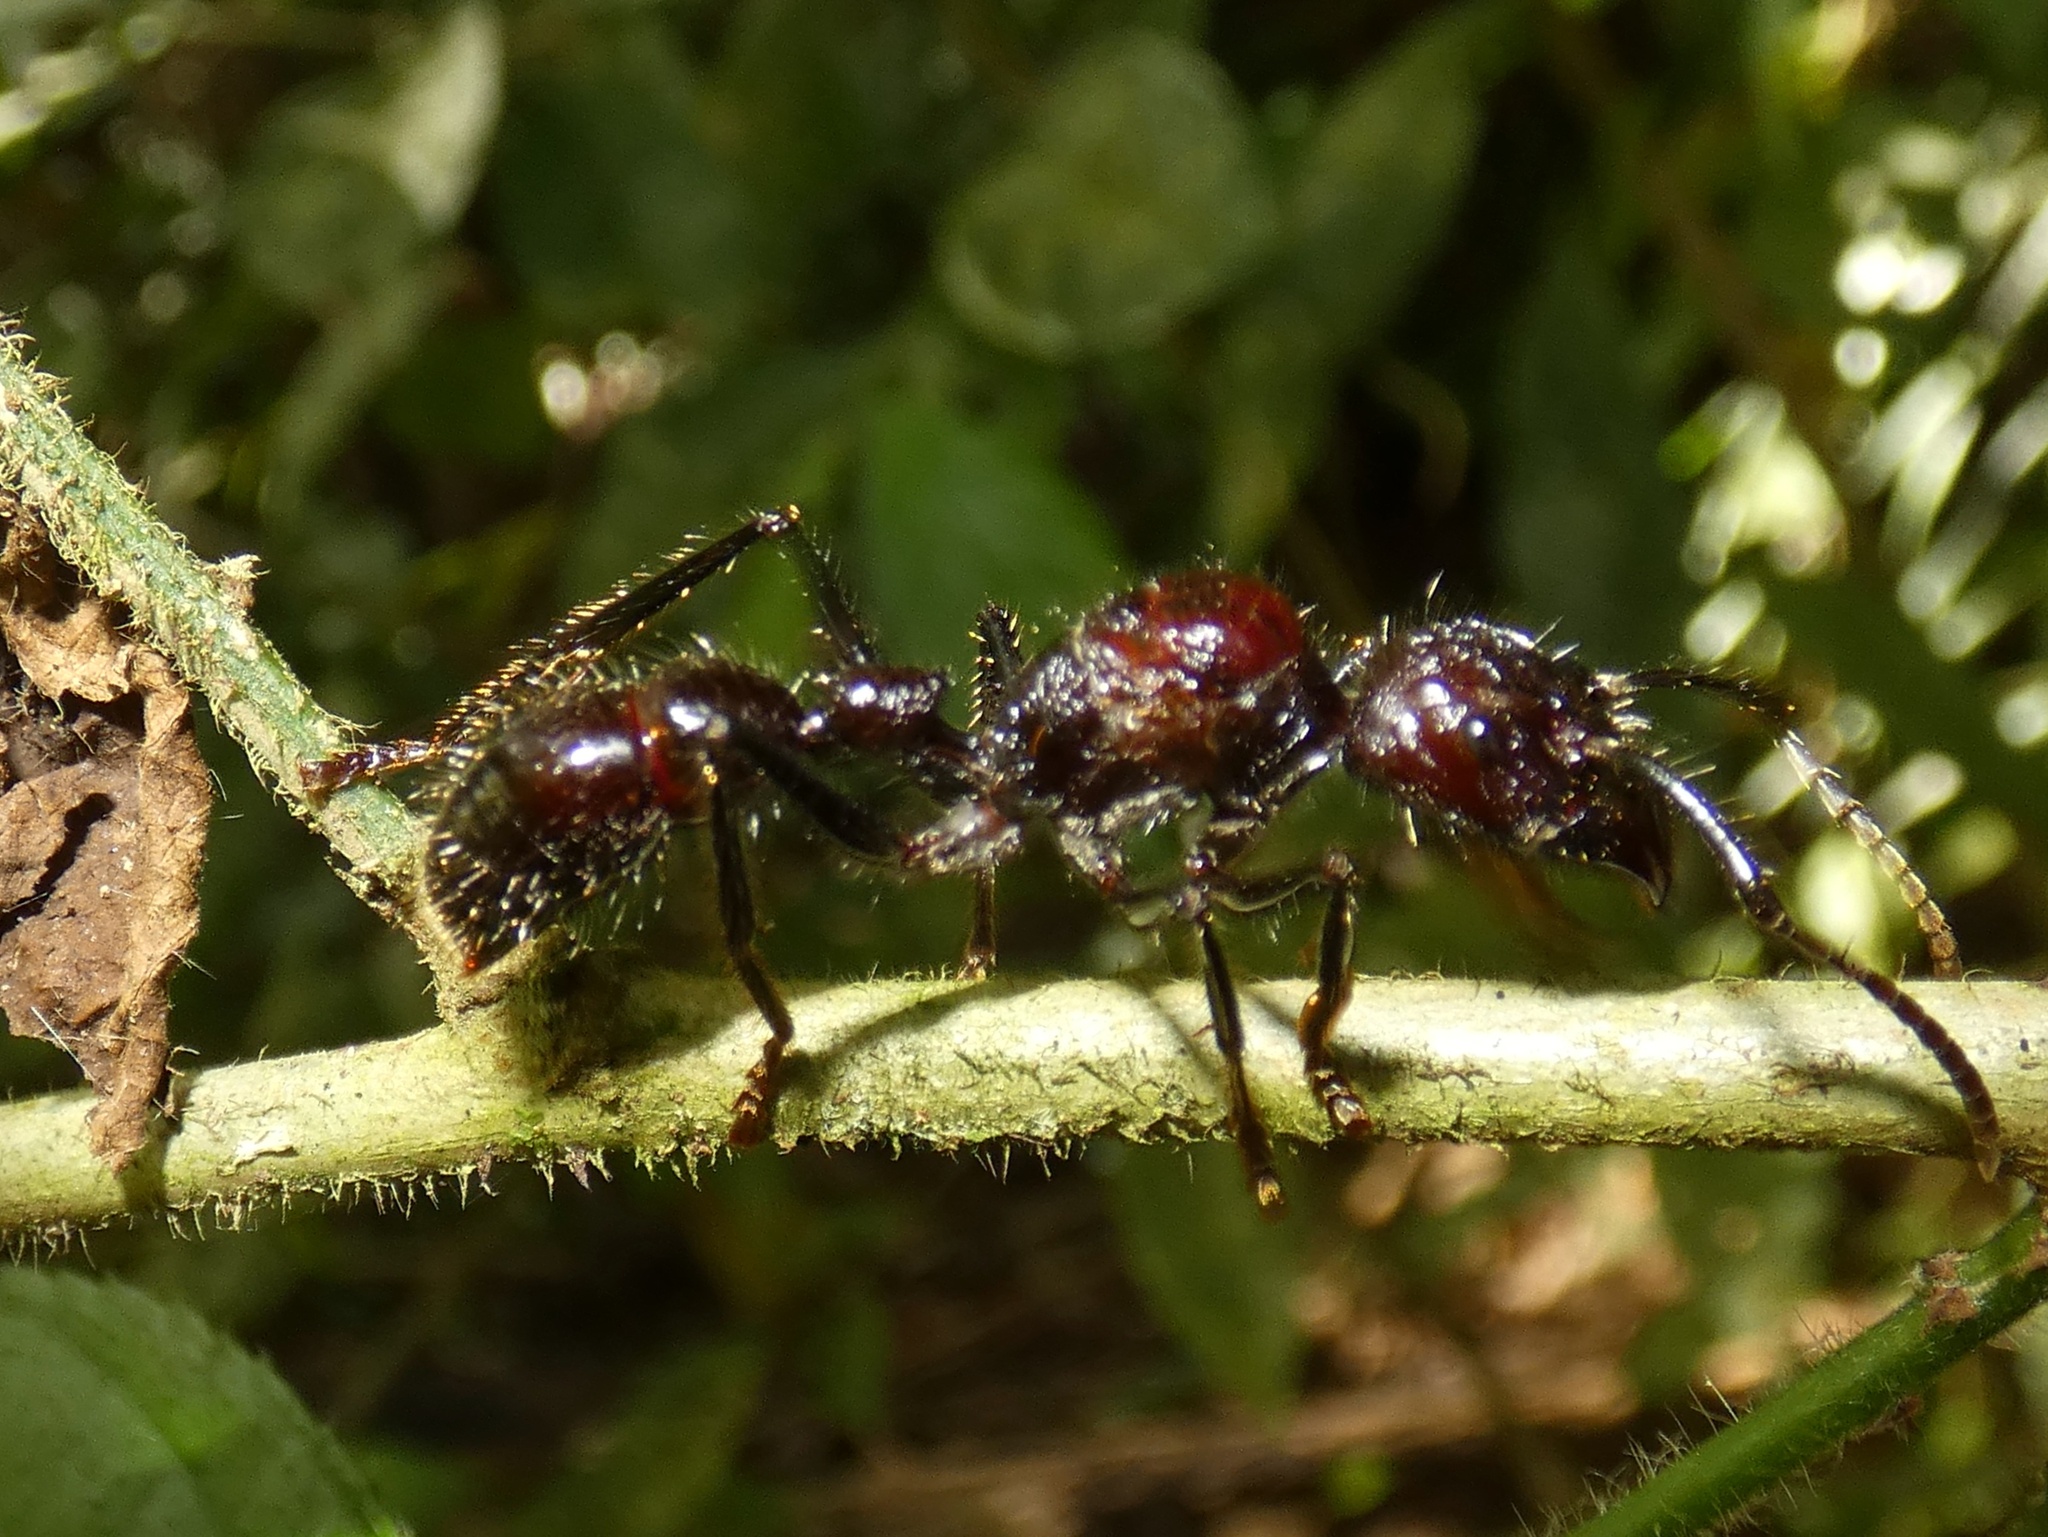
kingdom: Animalia
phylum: Arthropoda
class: Insecta
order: Hymenoptera
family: Formicidae
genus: Paraponera
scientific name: Paraponera clavata
